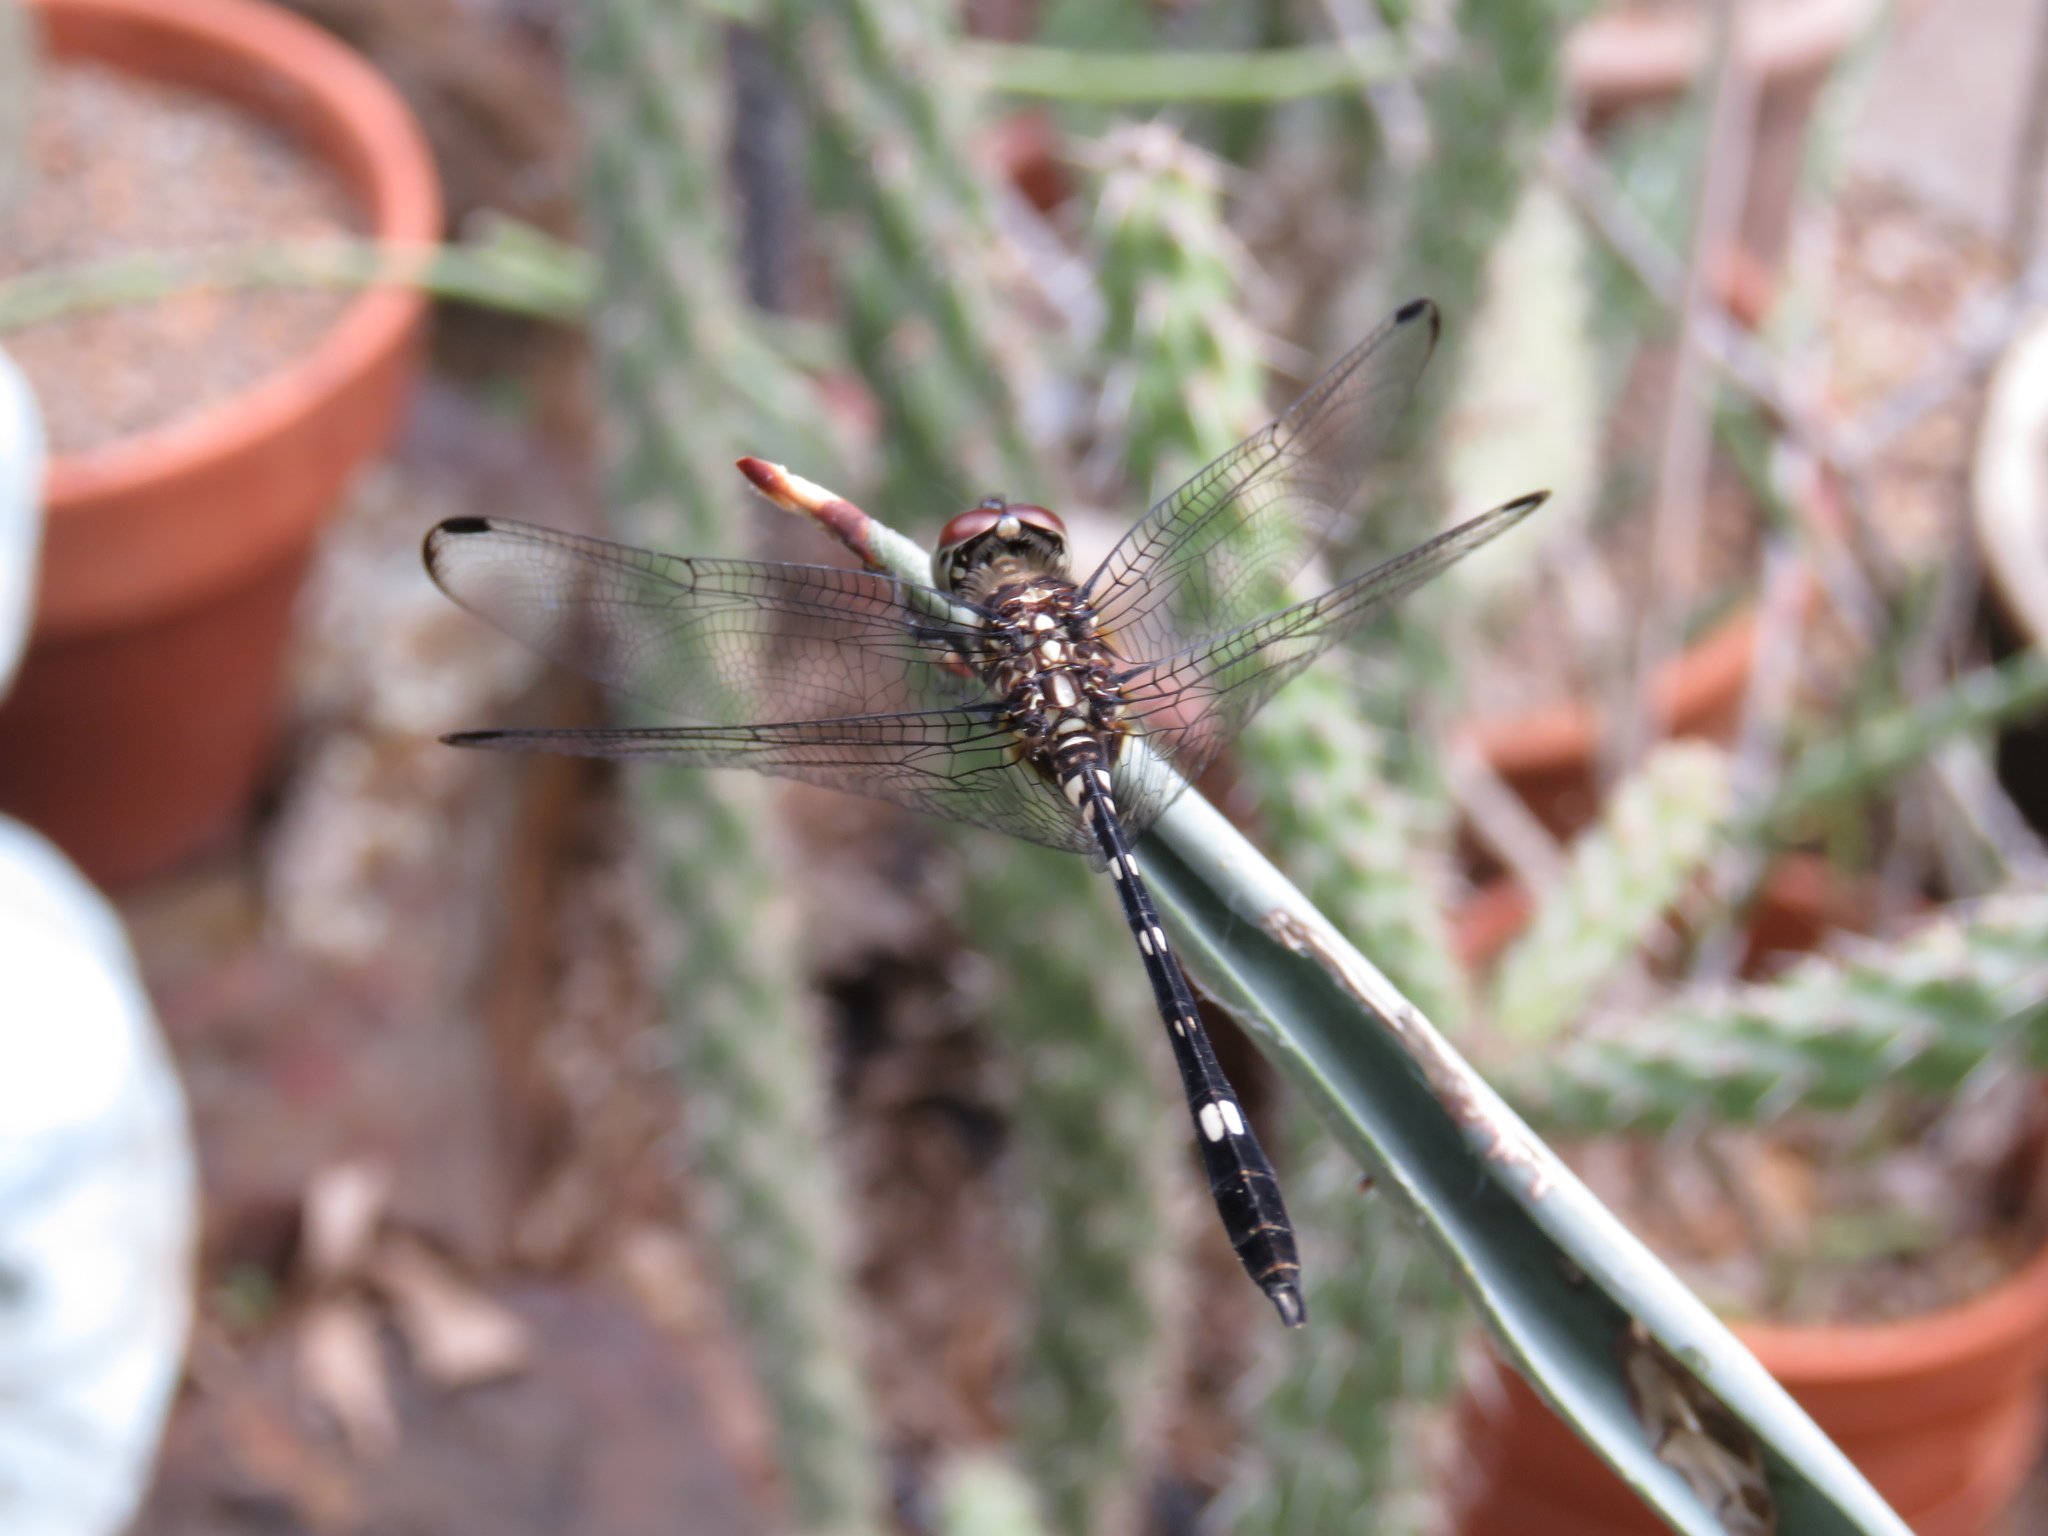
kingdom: Animalia
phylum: Arthropoda
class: Insecta
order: Odonata
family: Libellulidae
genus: Dythemis
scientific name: Dythemis velox
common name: Swift setwing
